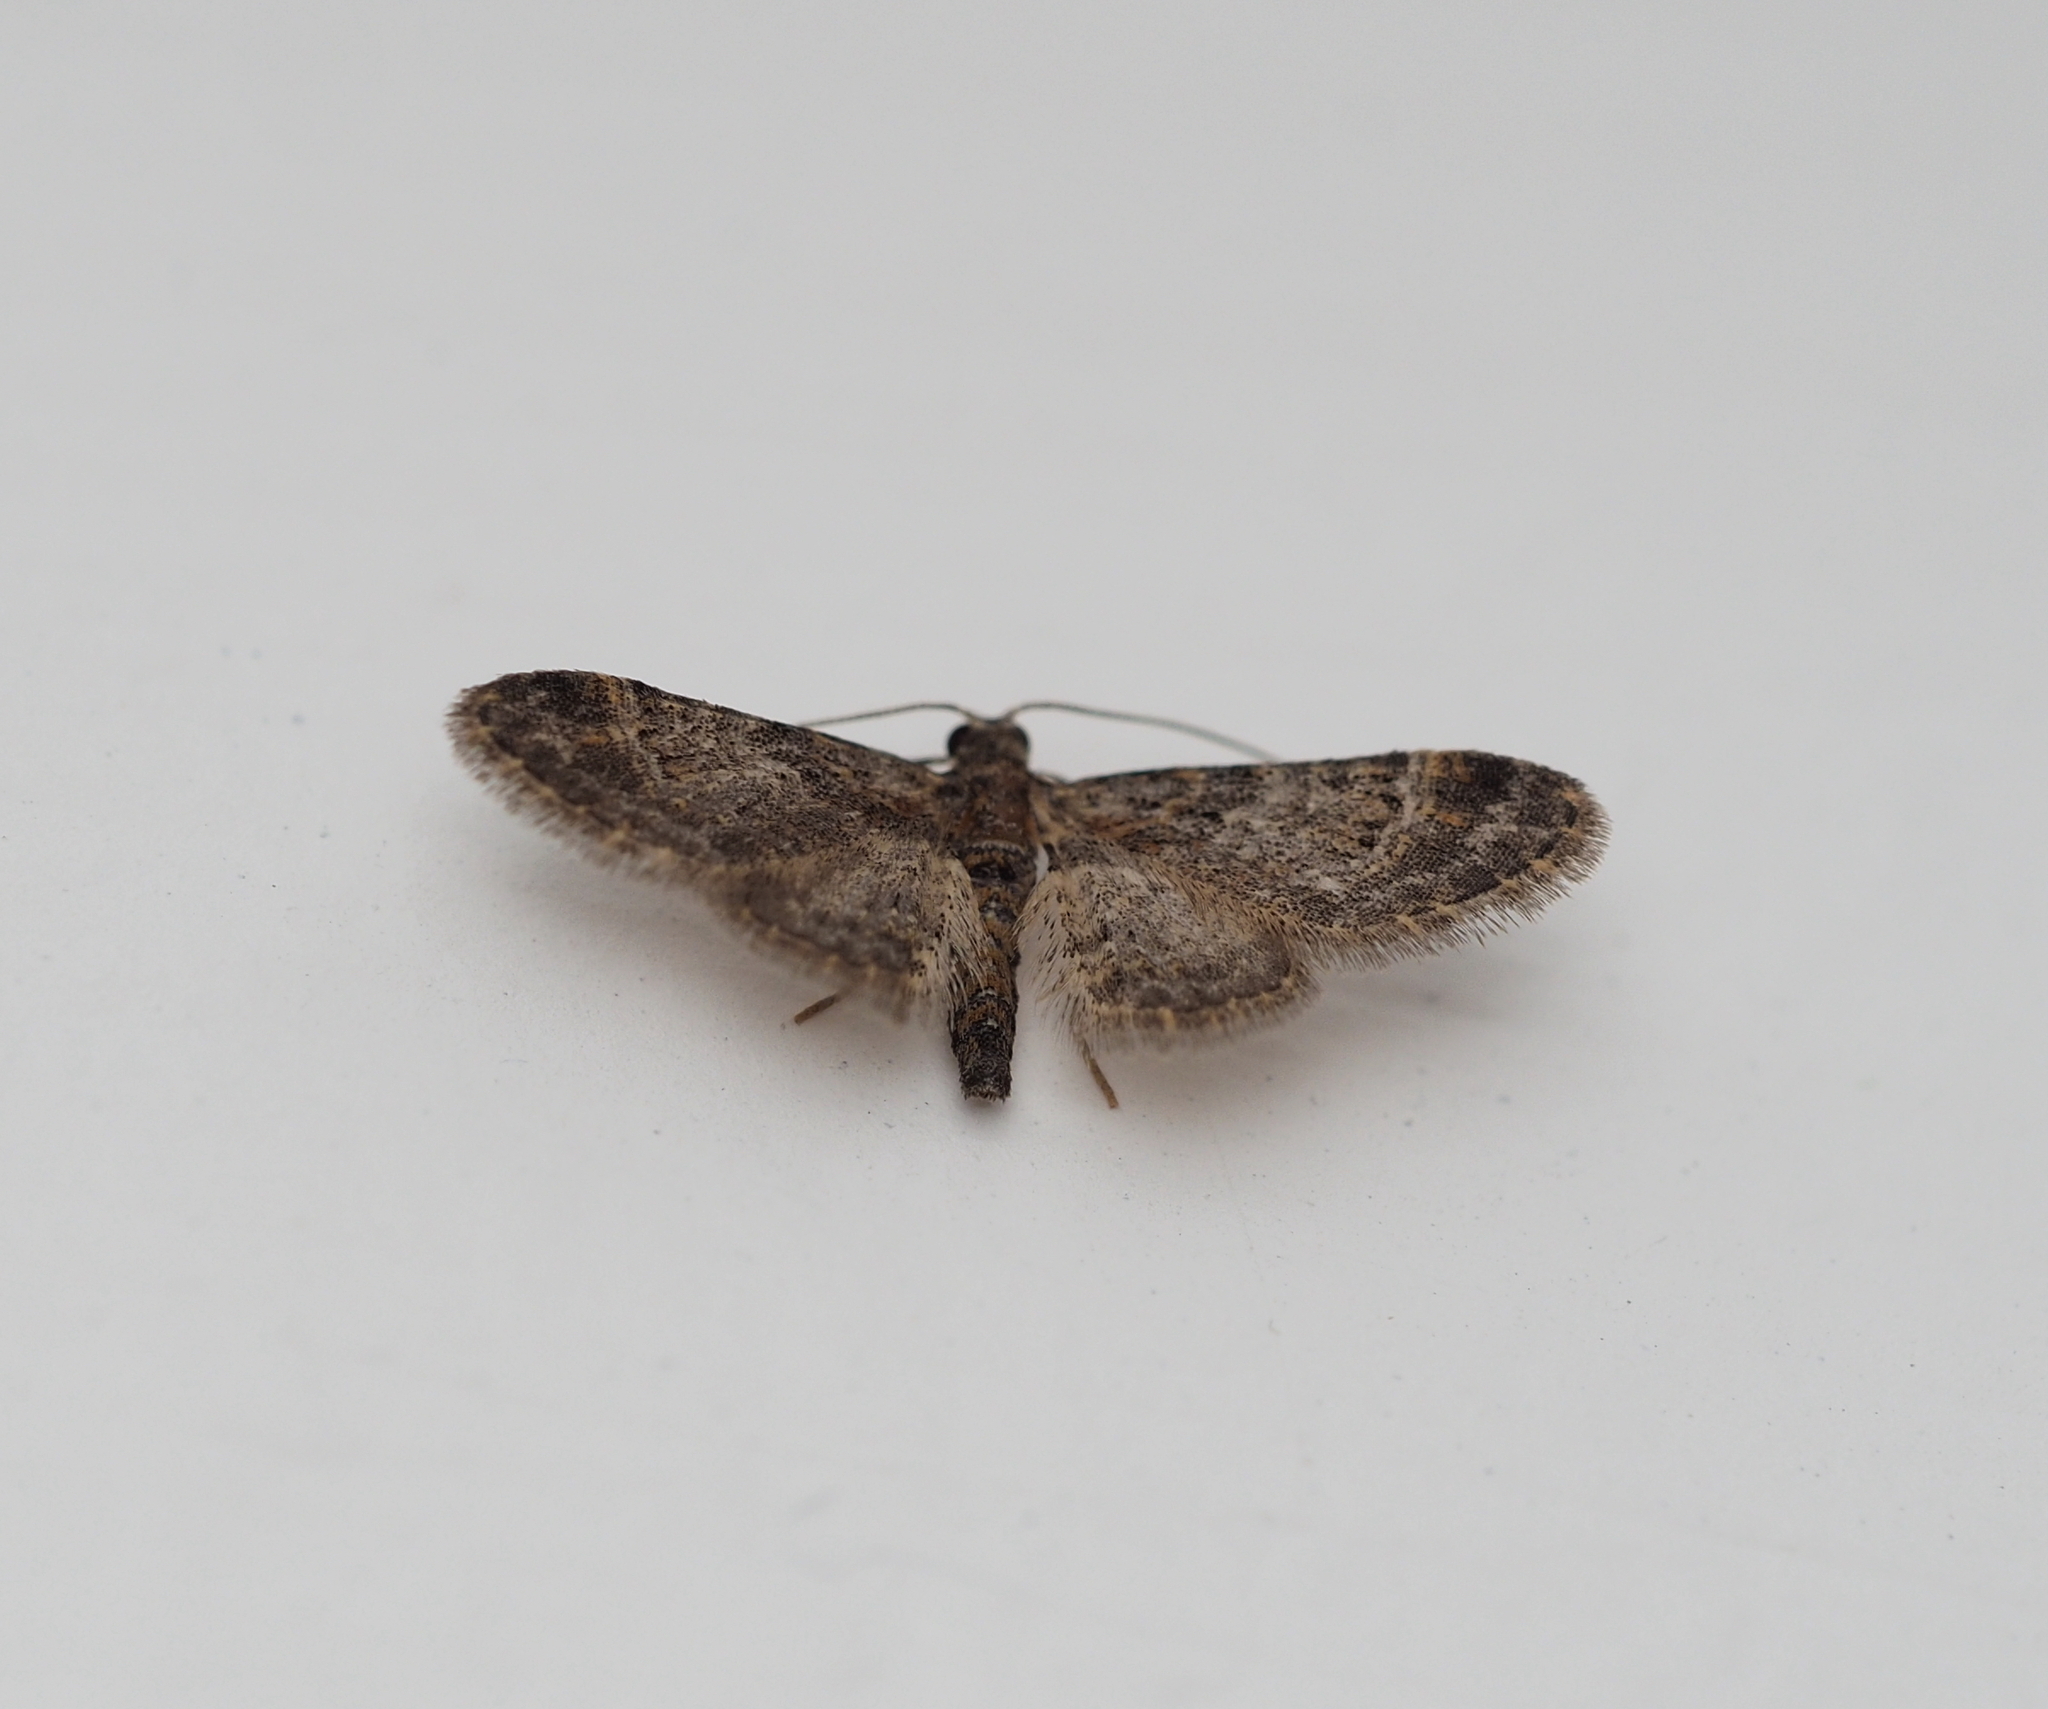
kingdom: Animalia
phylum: Arthropoda
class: Insecta
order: Lepidoptera
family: Geometridae
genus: Gymnoscelis
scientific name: Gymnoscelis rufifasciata
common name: Double-striped pug
